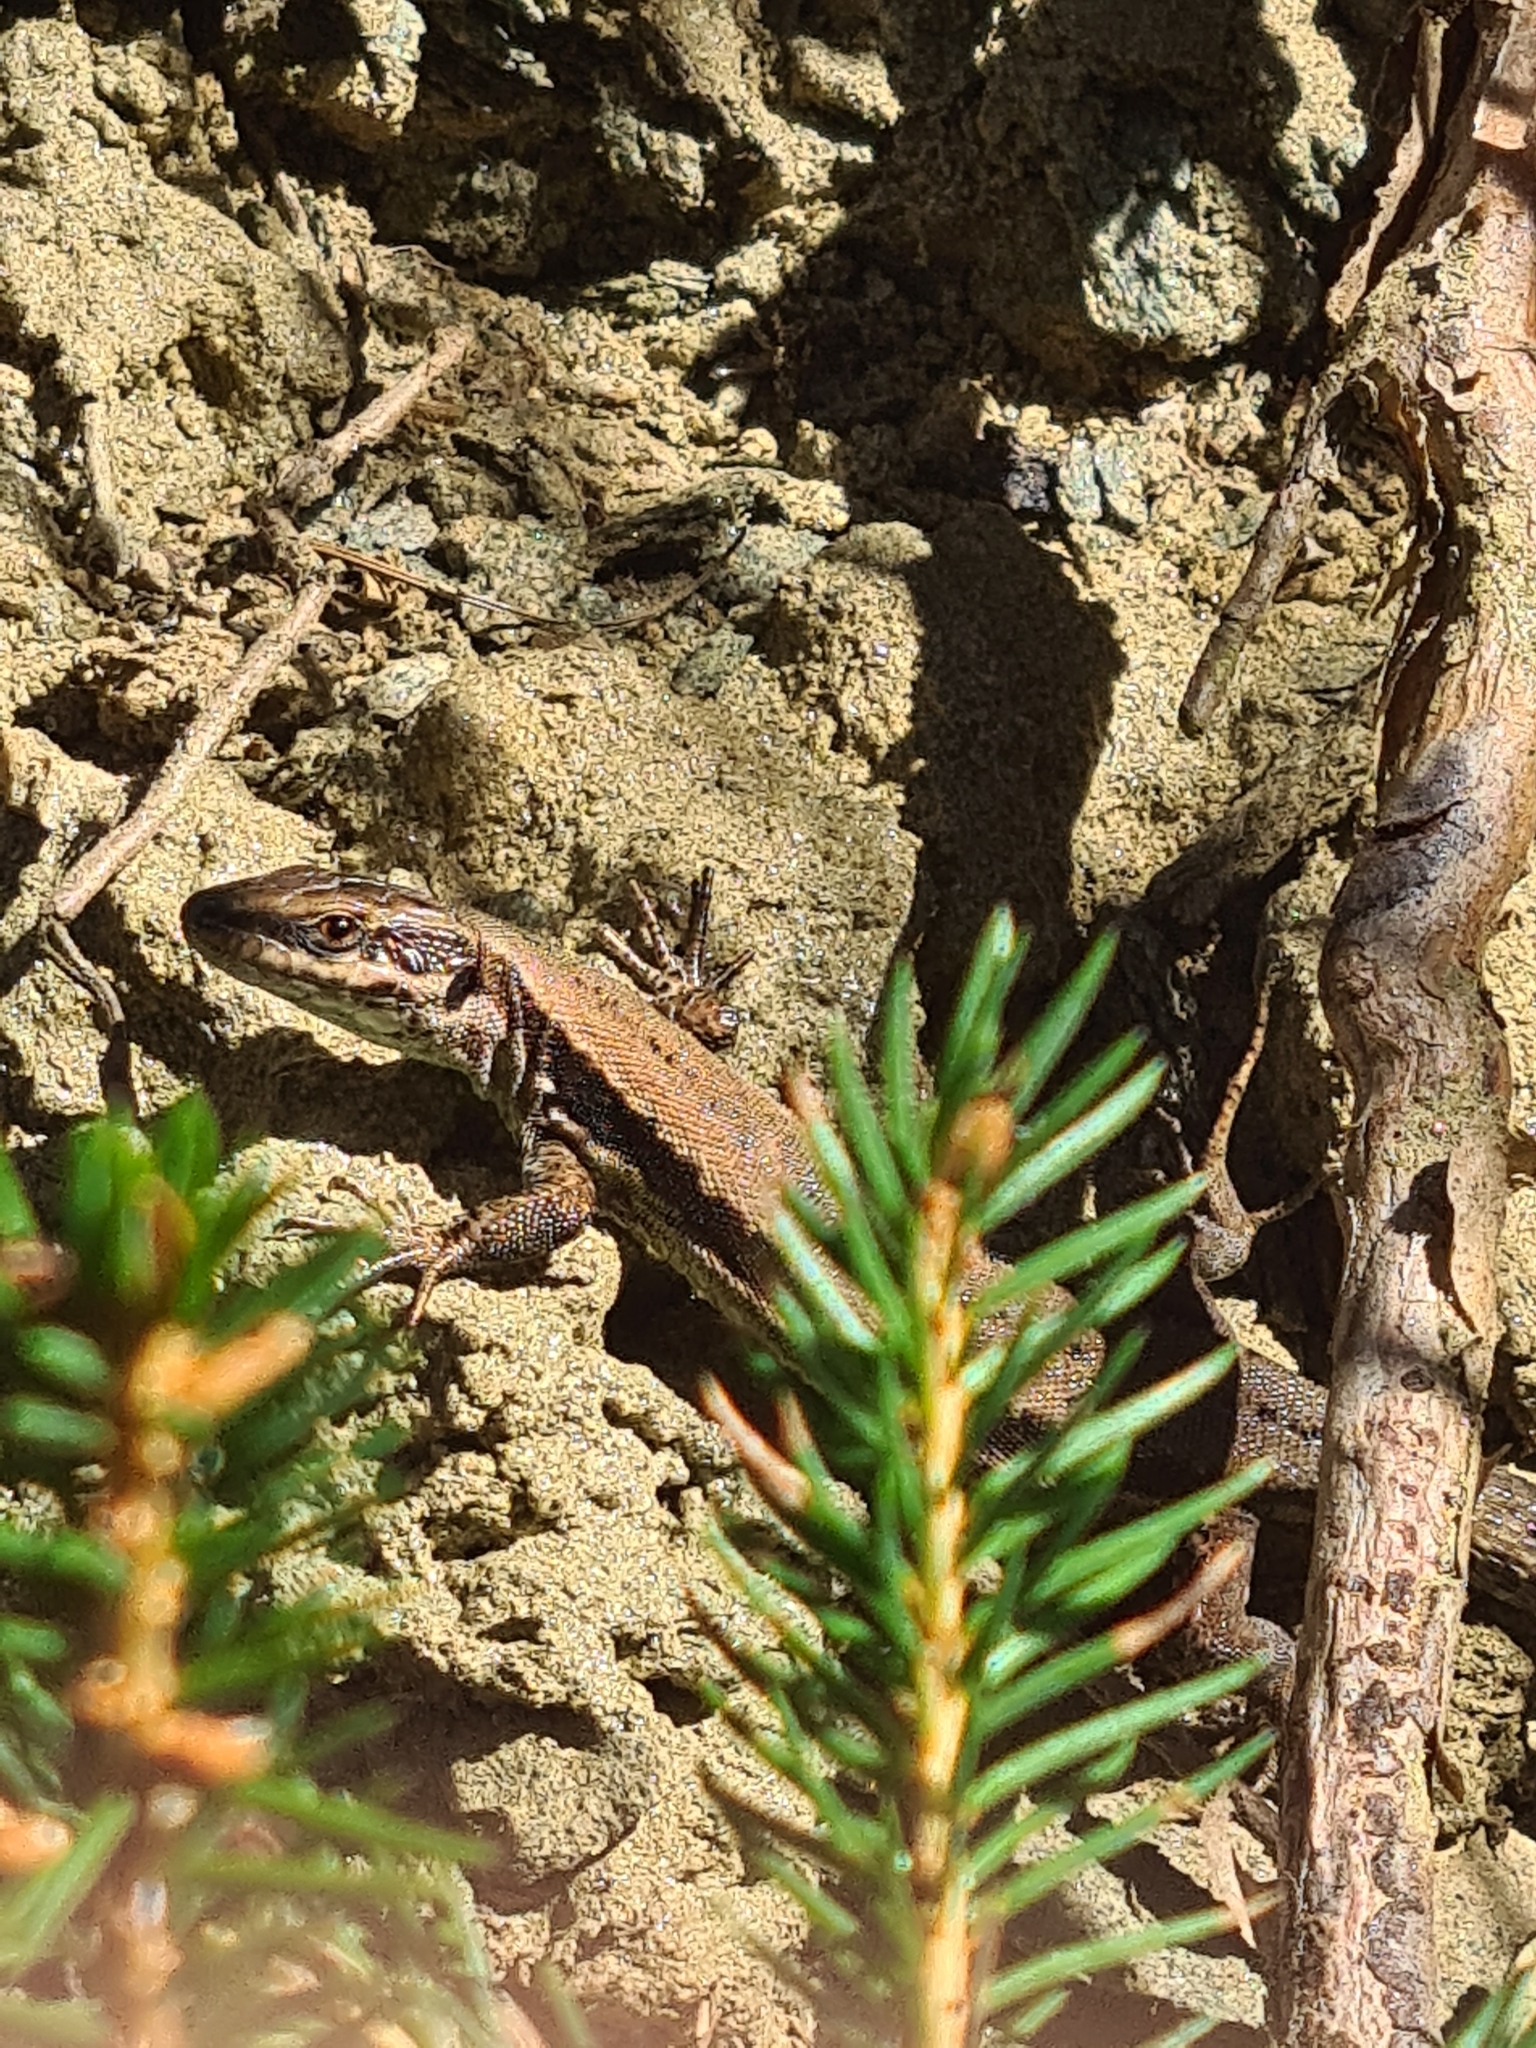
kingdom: Animalia
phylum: Chordata
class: Squamata
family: Lacertidae
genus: Podarcis
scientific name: Podarcis muralis
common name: Common wall lizard
